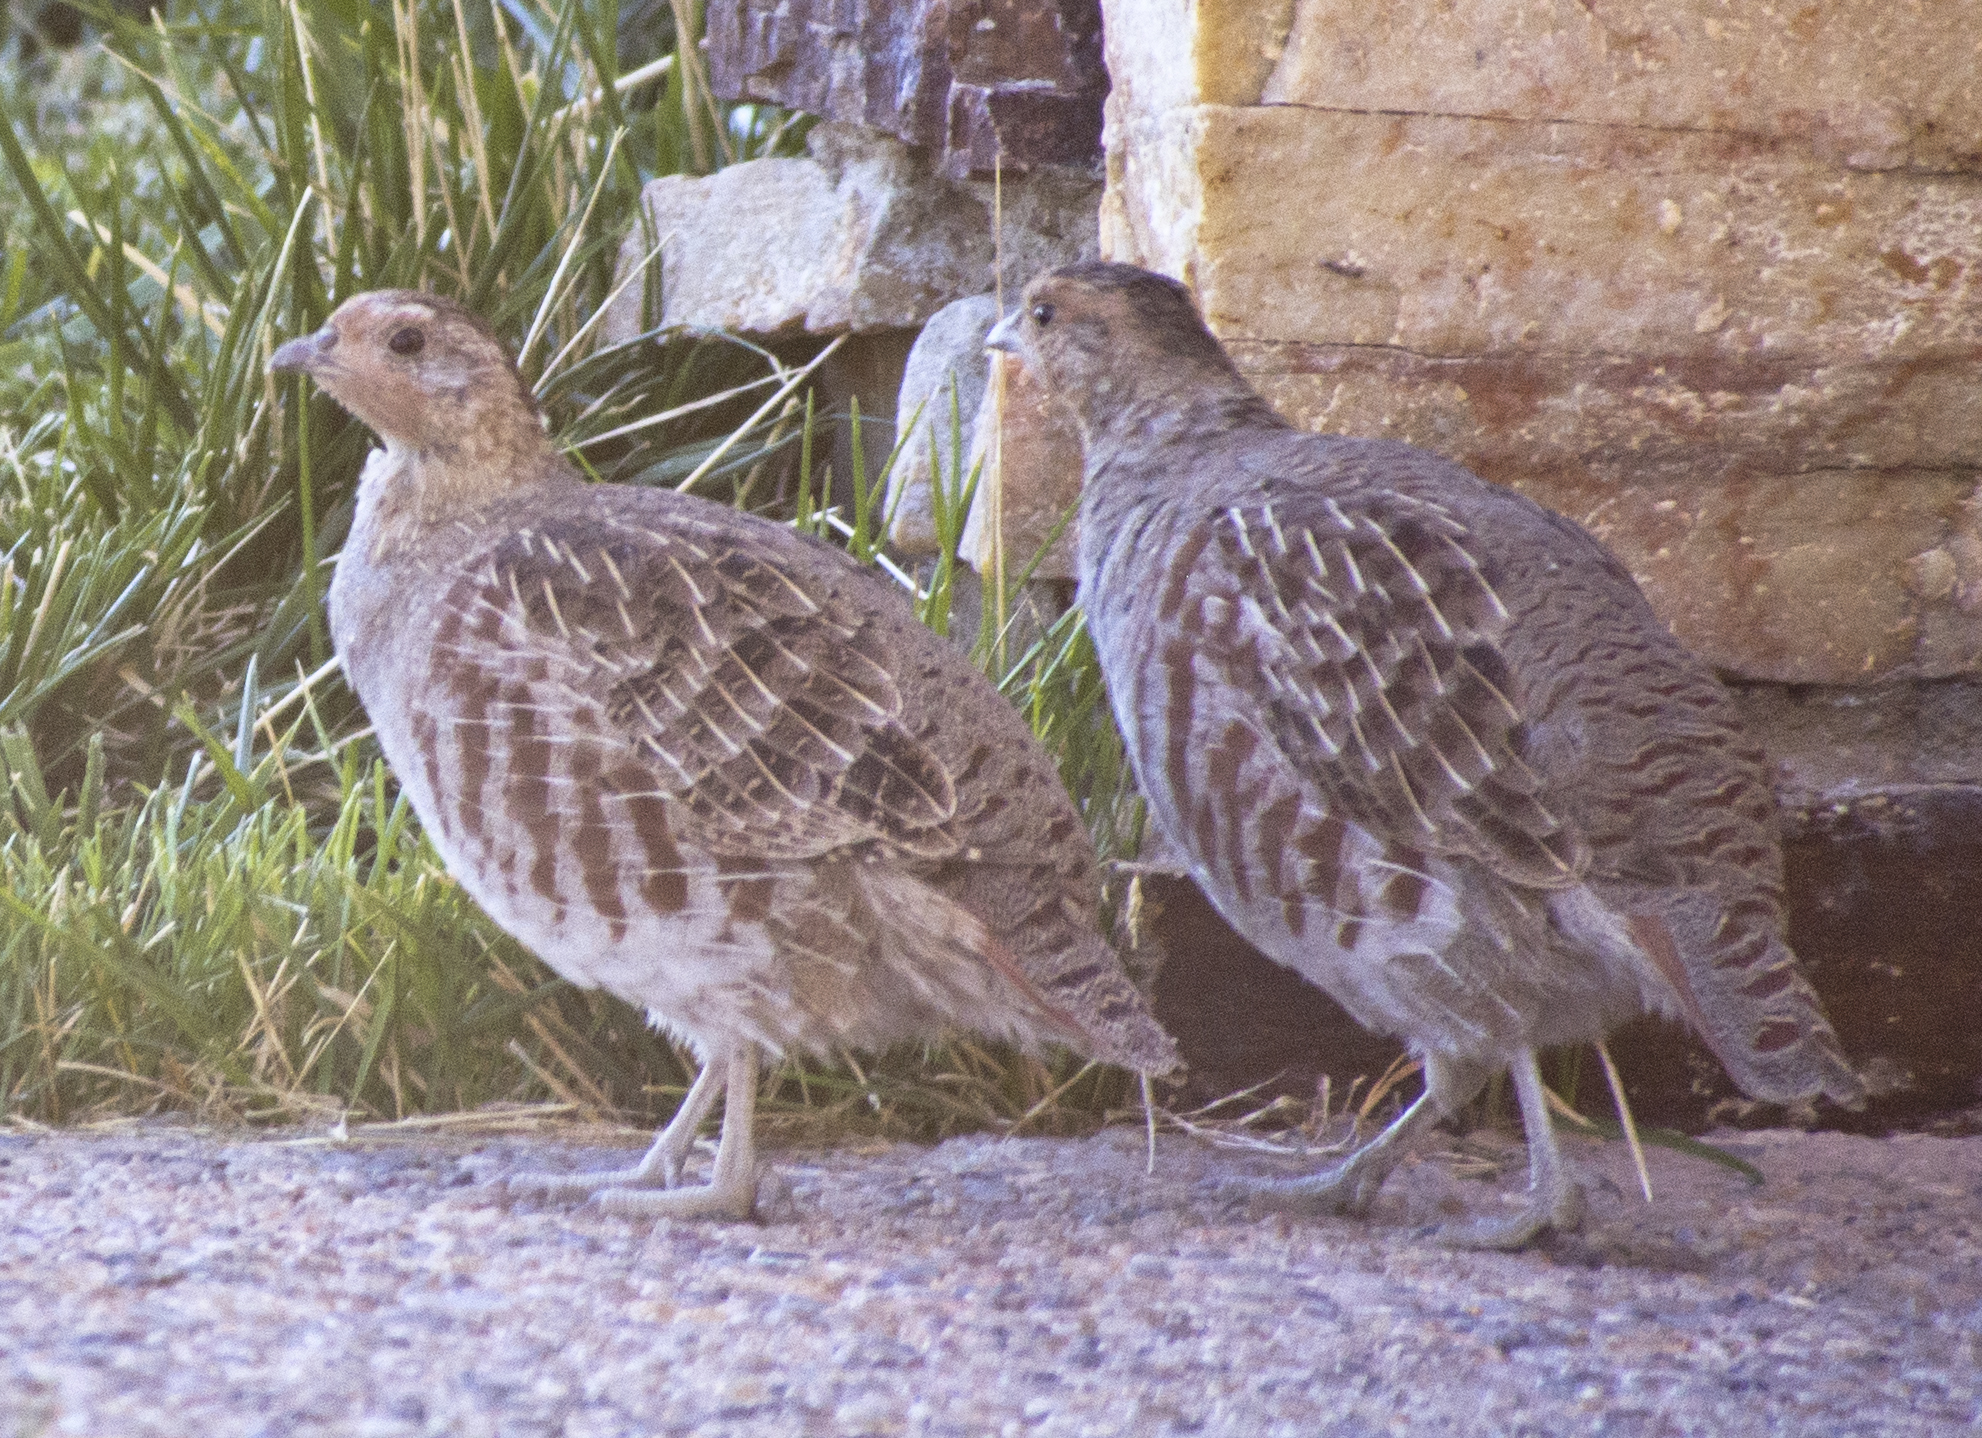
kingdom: Animalia
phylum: Chordata
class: Aves
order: Galliformes
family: Phasianidae
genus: Perdix
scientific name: Perdix perdix
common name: Grey partridge
